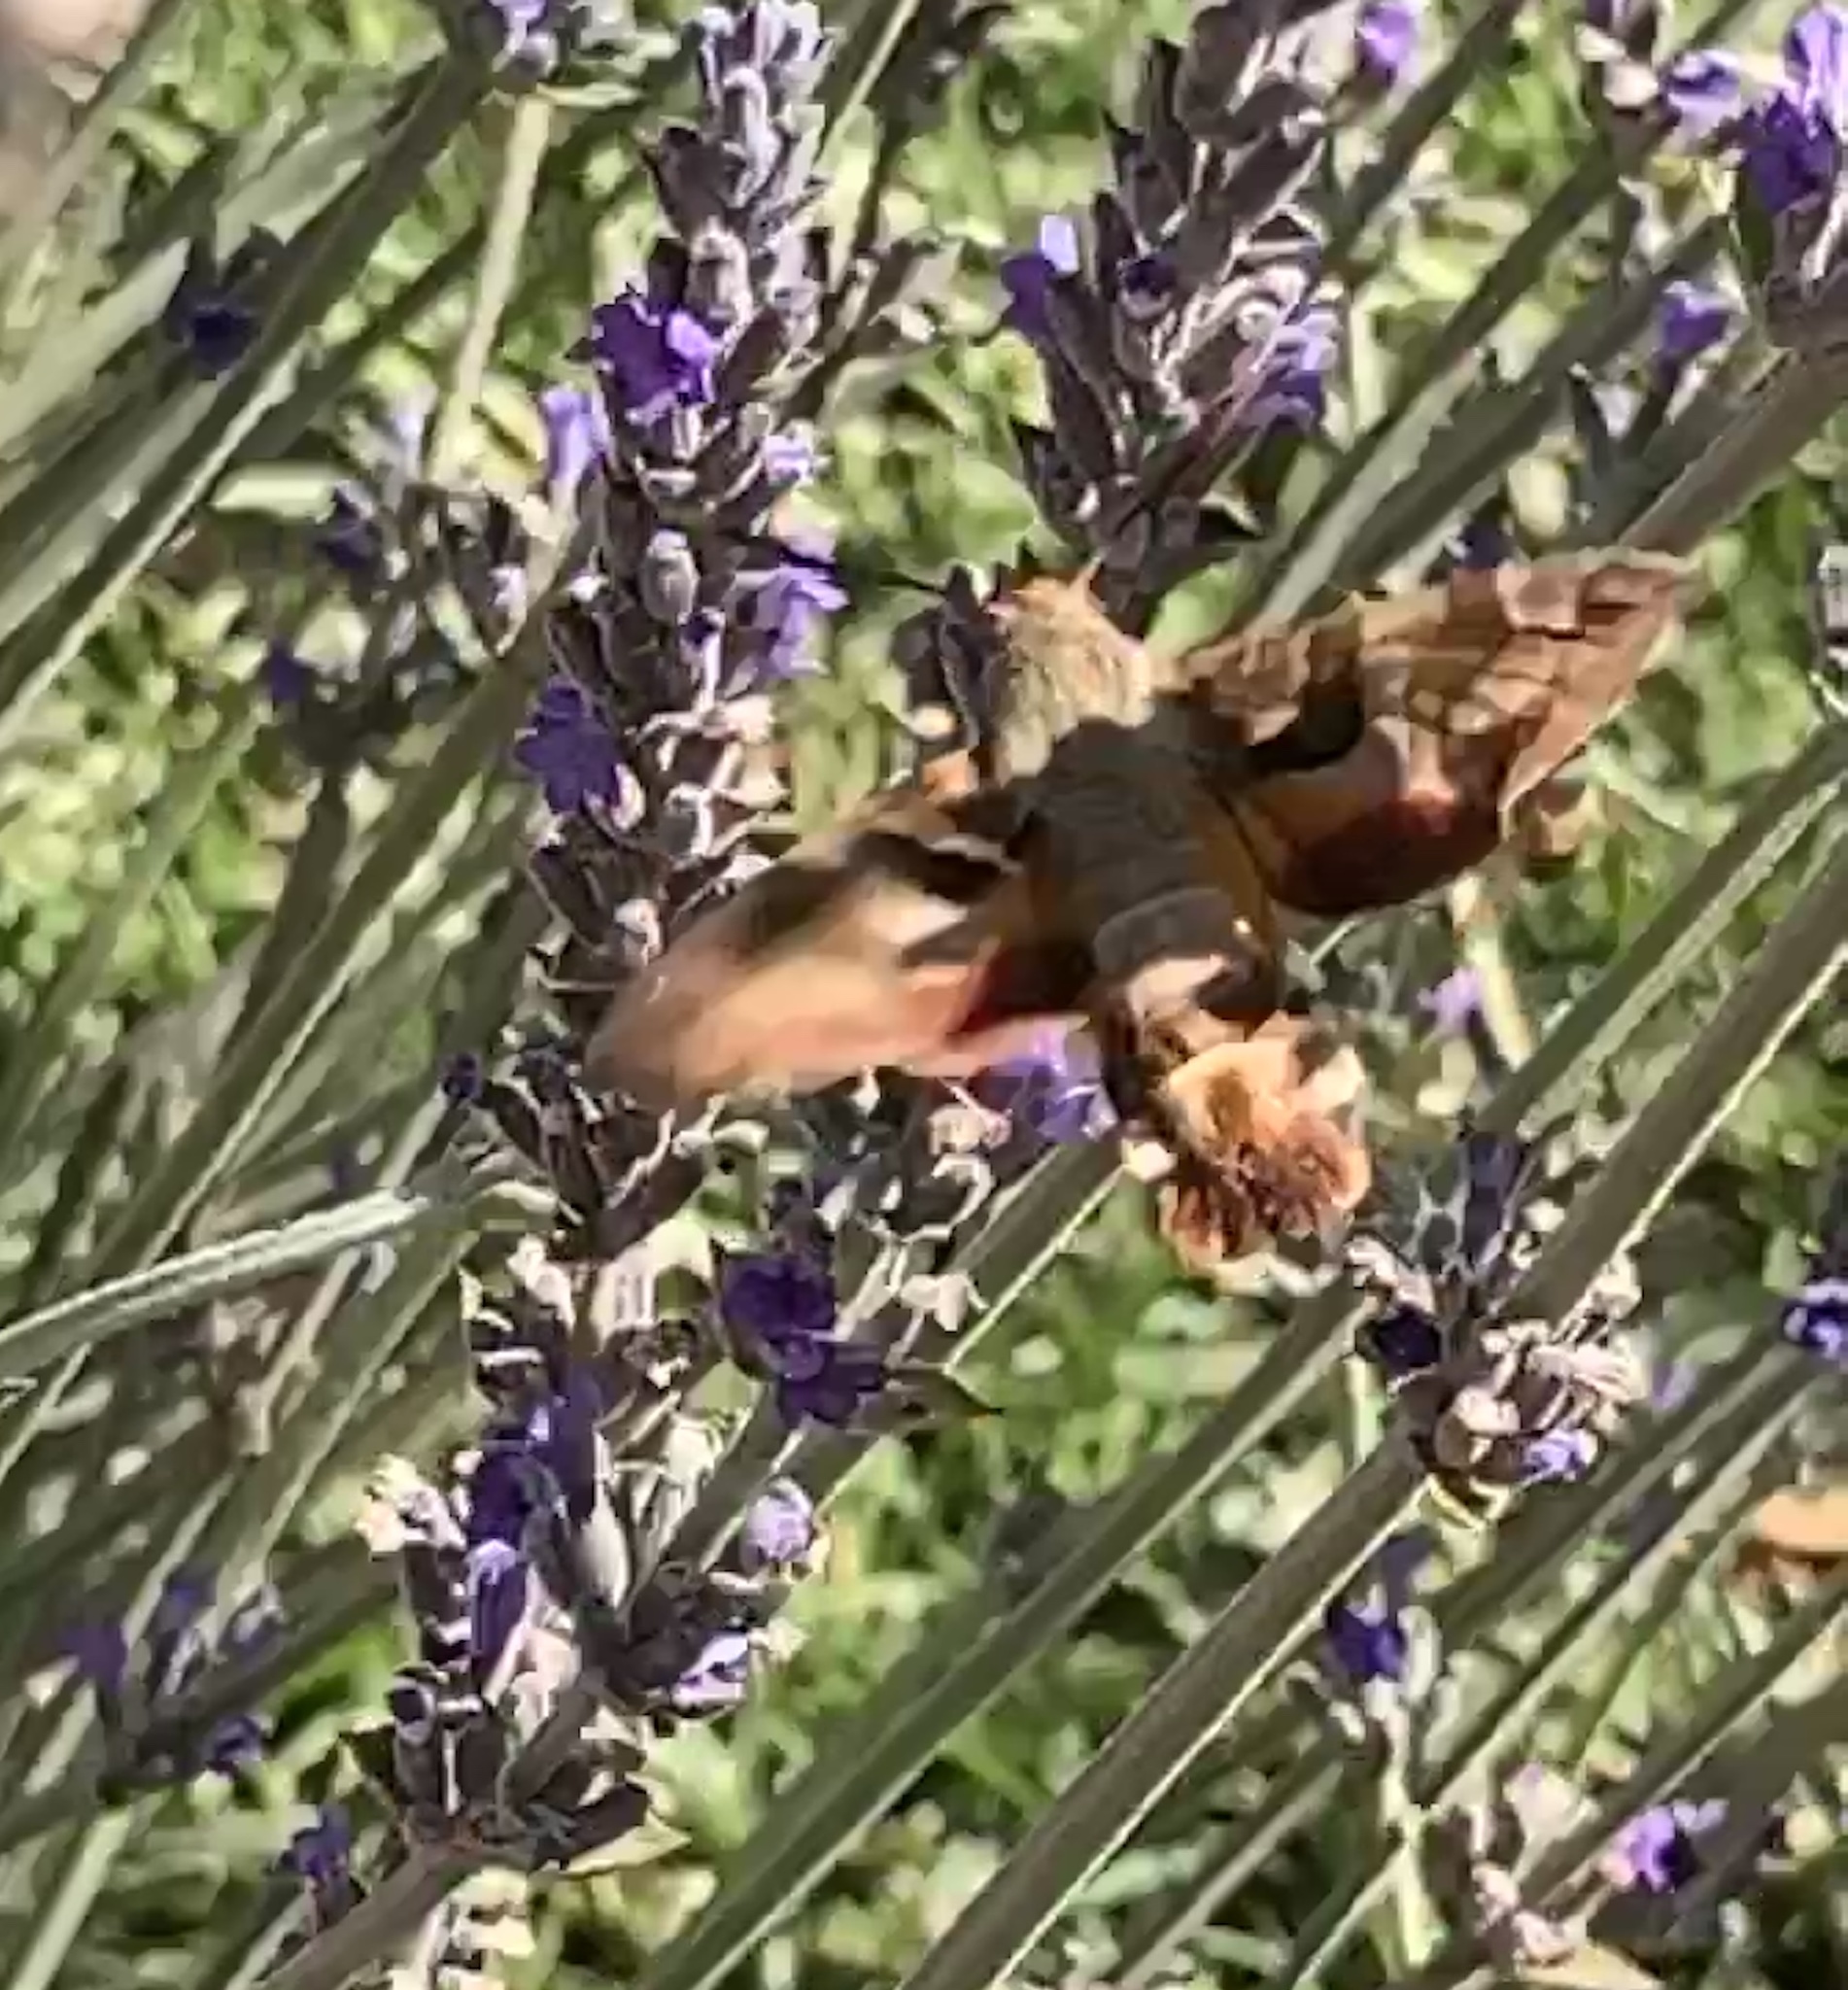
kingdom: Animalia
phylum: Arthropoda
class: Insecta
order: Lepidoptera
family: Sphingidae
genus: Macroglossum
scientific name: Macroglossum trochilus
